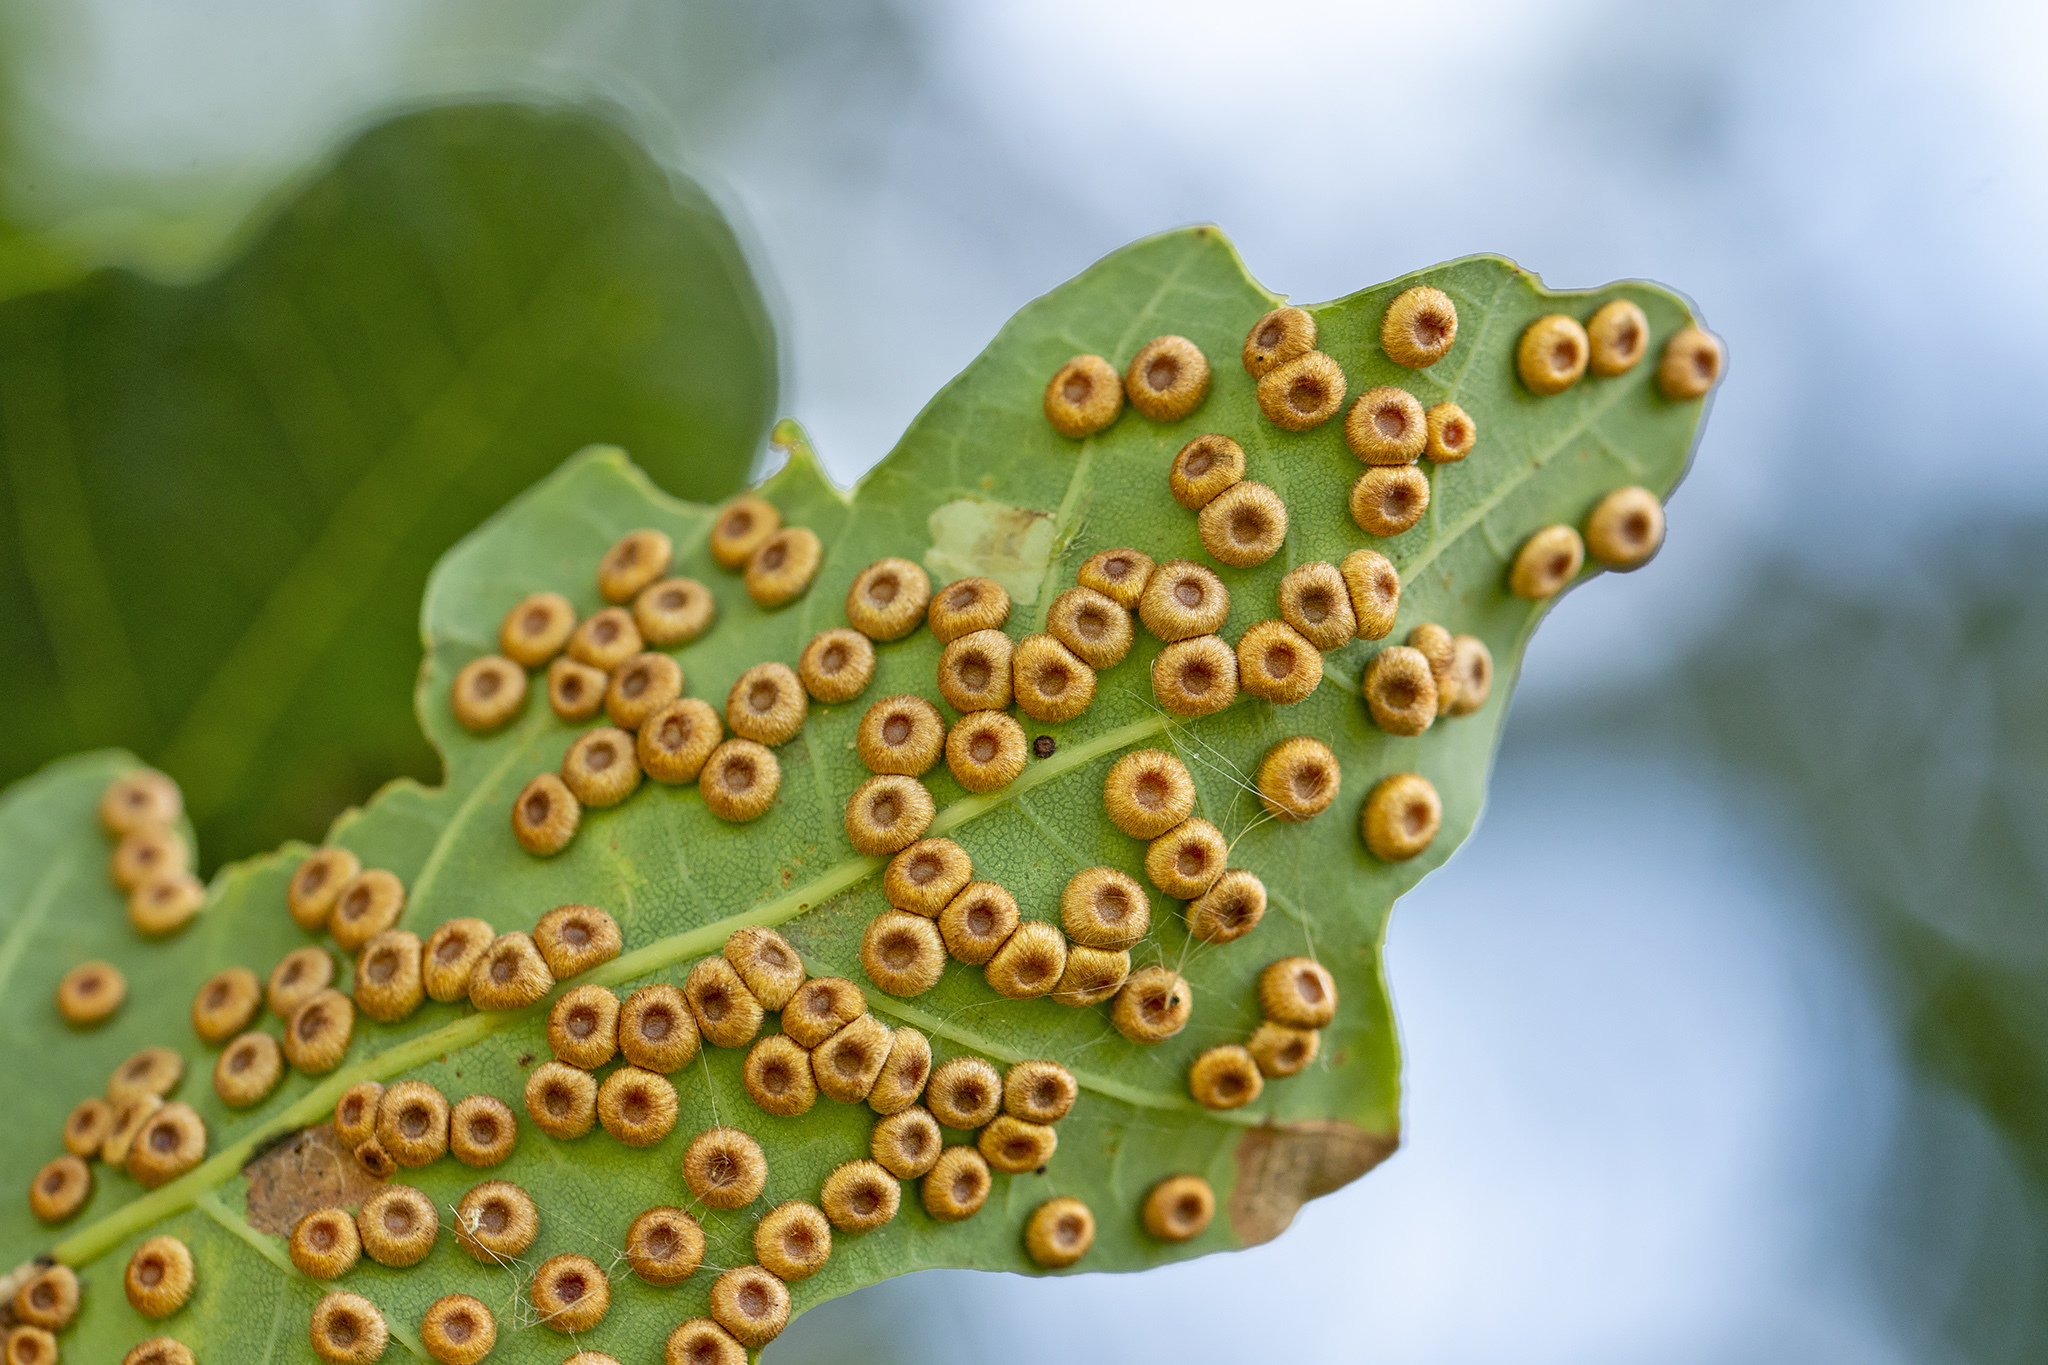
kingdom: Animalia
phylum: Arthropoda
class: Insecta
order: Hymenoptera
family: Cynipidae
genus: Neuroterus
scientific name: Neuroterus numismalis
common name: Silk-button spangle gall
